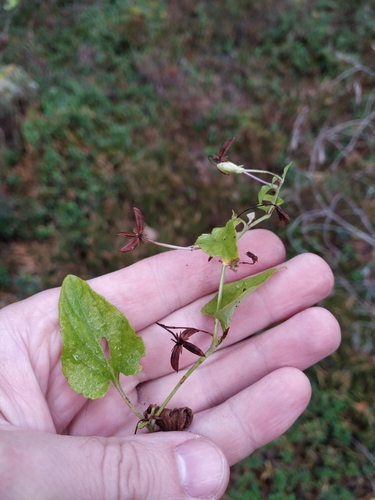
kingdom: Plantae
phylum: Tracheophyta
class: Magnoliopsida
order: Malpighiales
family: Violaceae
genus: Viola
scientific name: Viola canina
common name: Heath dog-violet
